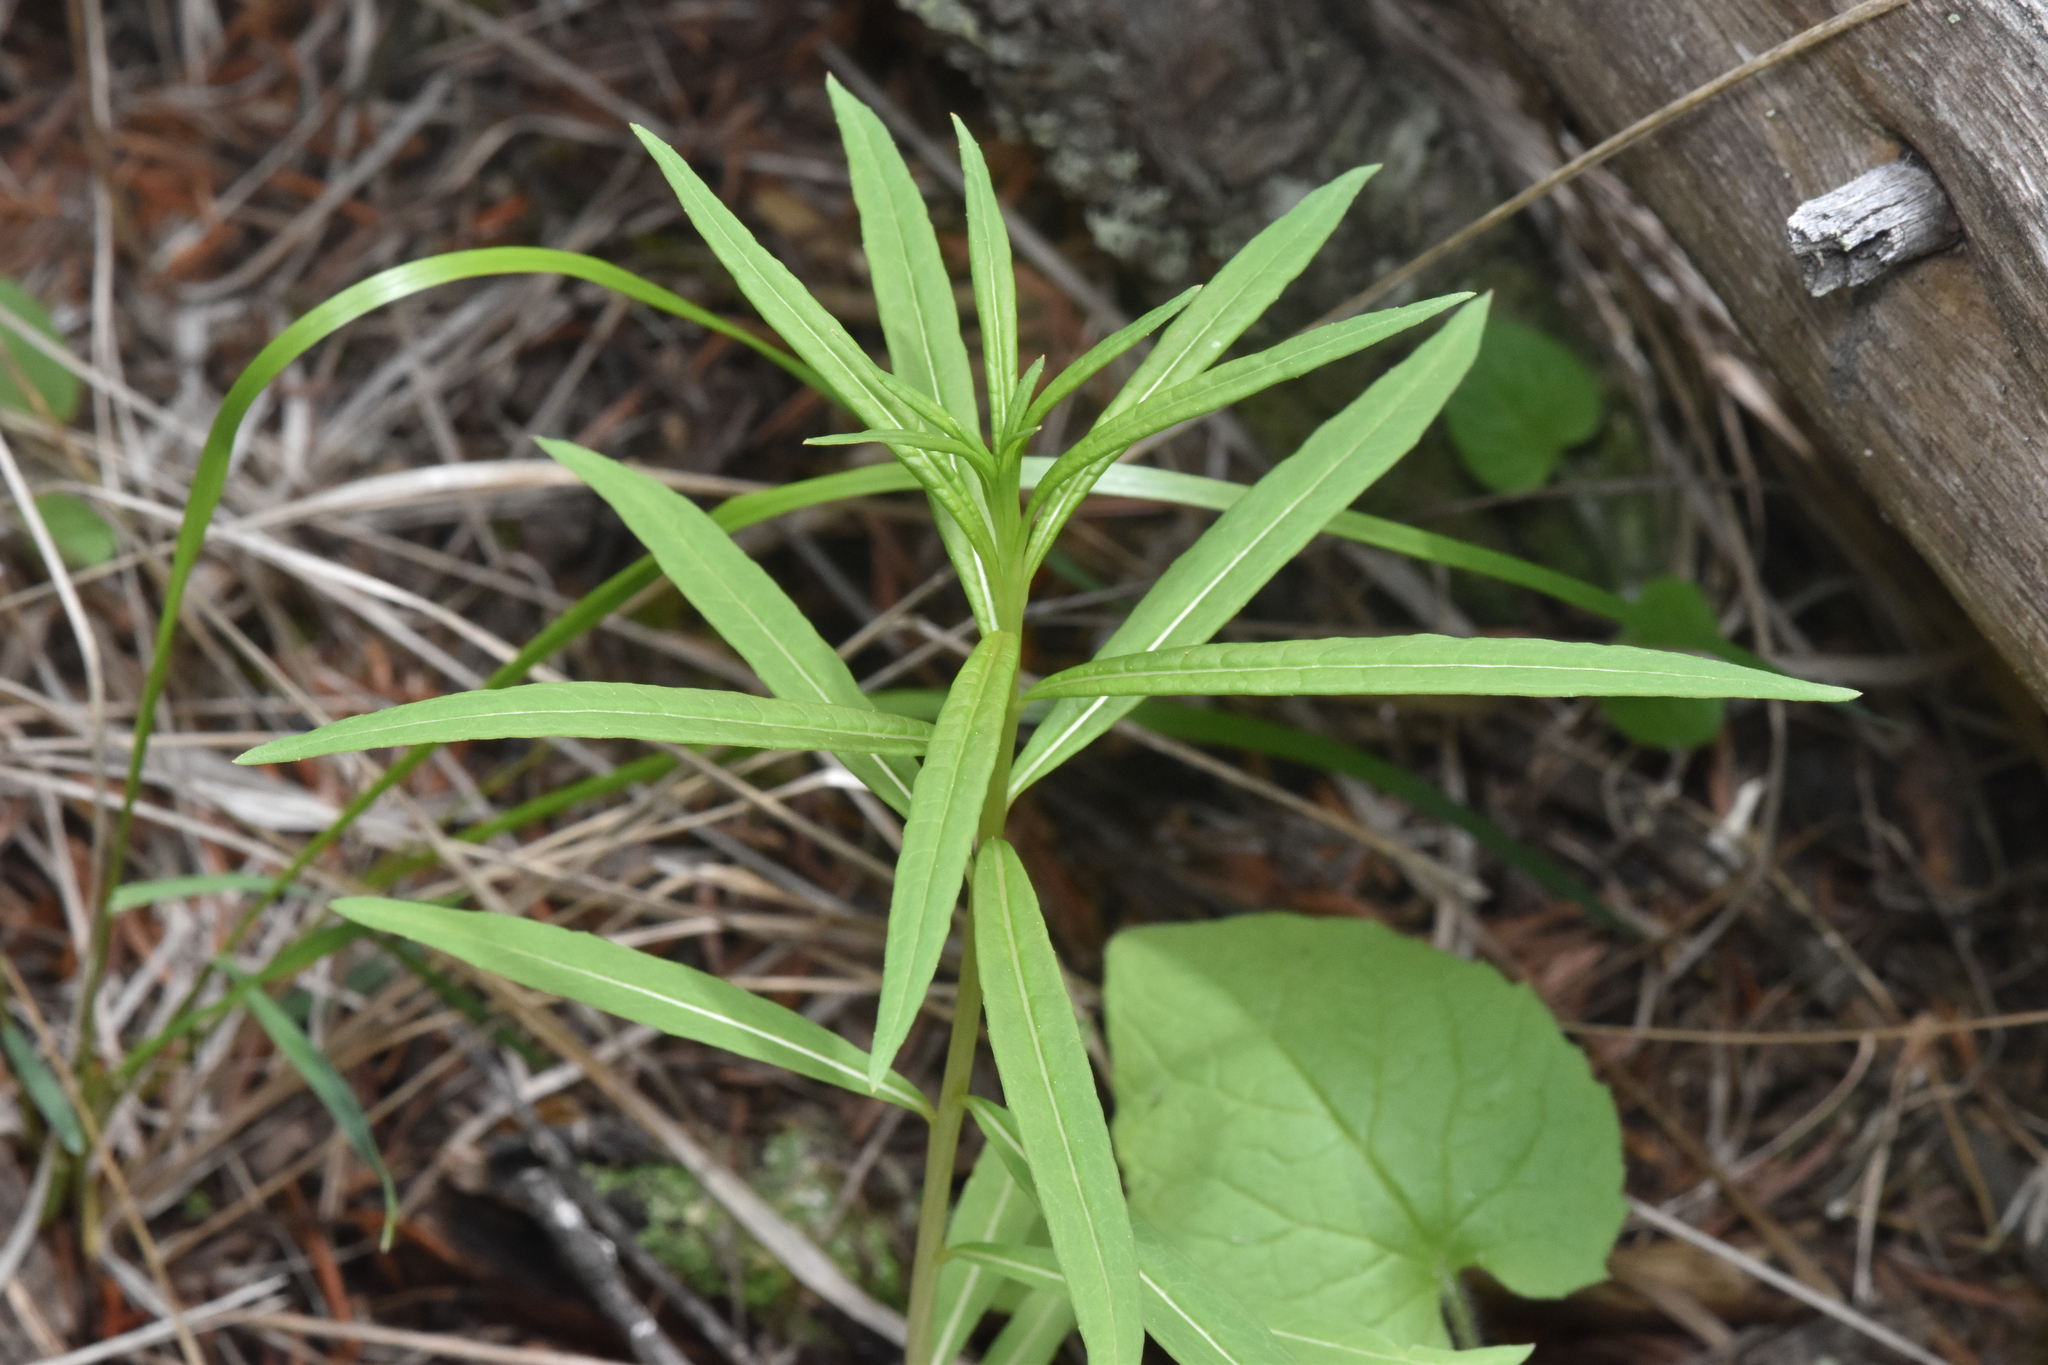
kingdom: Plantae
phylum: Tracheophyta
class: Magnoliopsida
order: Myrtales
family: Onagraceae
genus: Chamaenerion
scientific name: Chamaenerion angustifolium
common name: Fireweed
